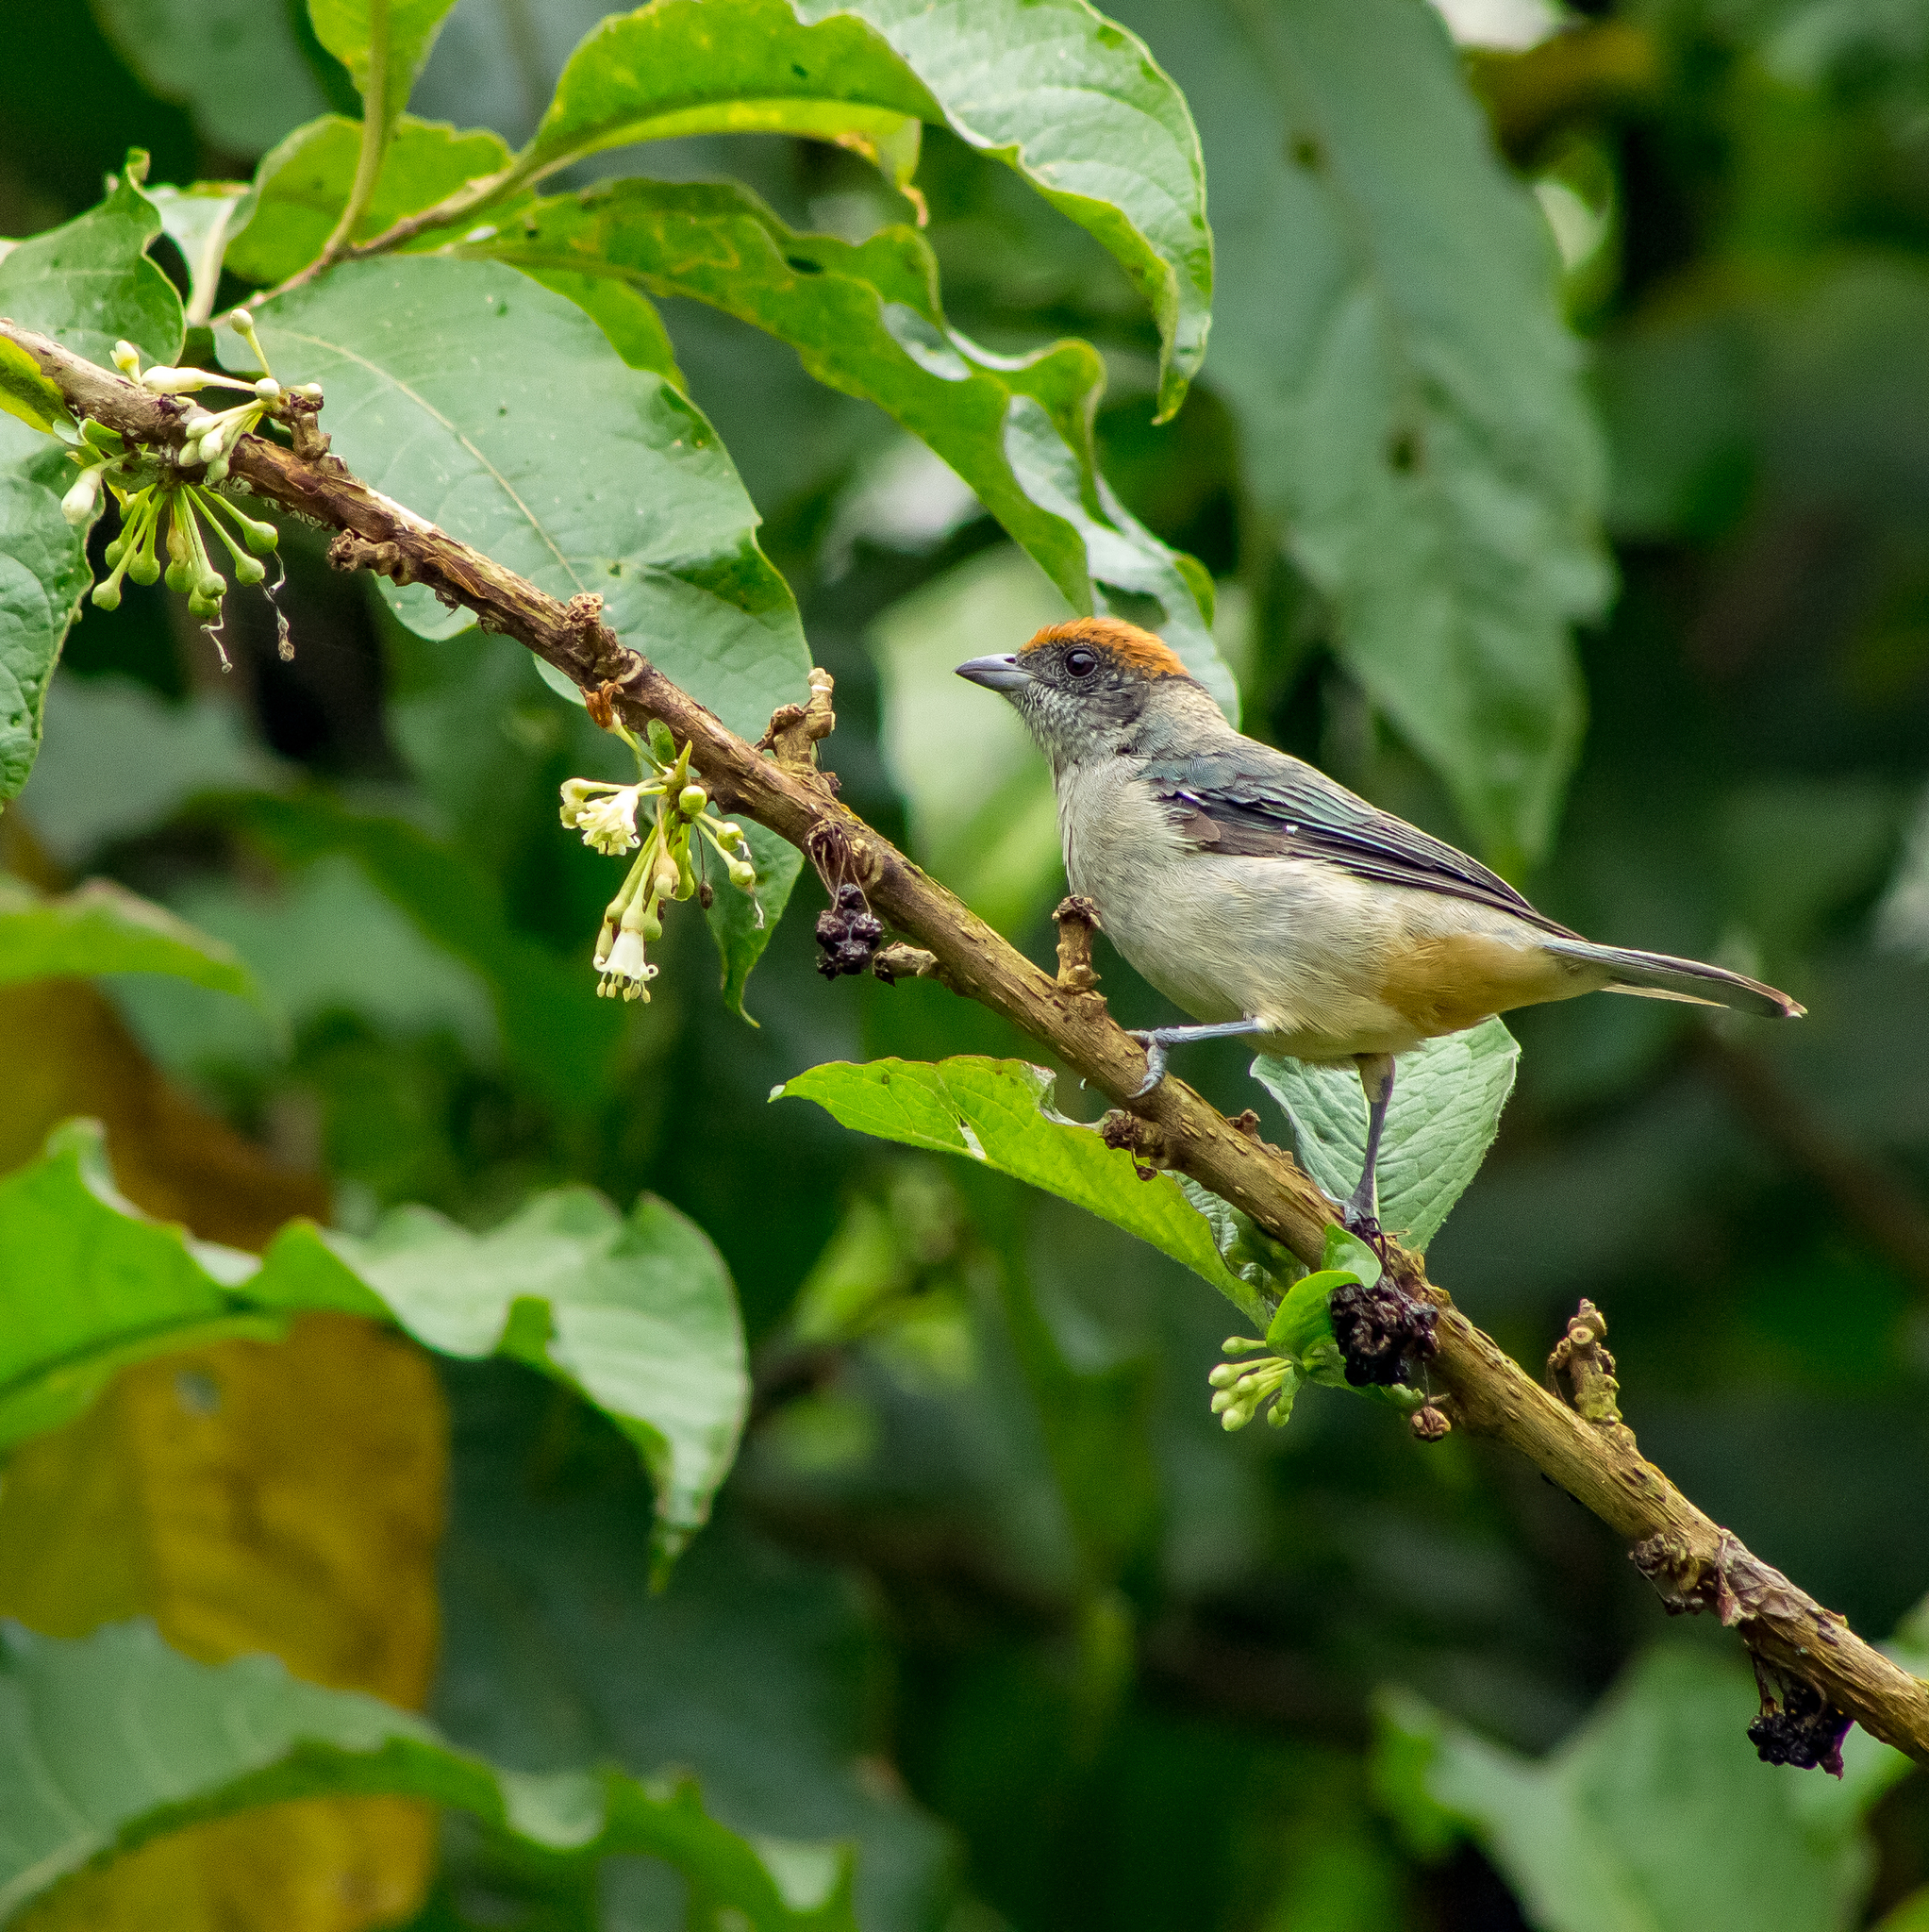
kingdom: Animalia
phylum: Chordata
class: Aves
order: Passeriformes
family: Thraupidae
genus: Stilpnia
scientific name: Stilpnia vitriolina
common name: Scrub tanager
